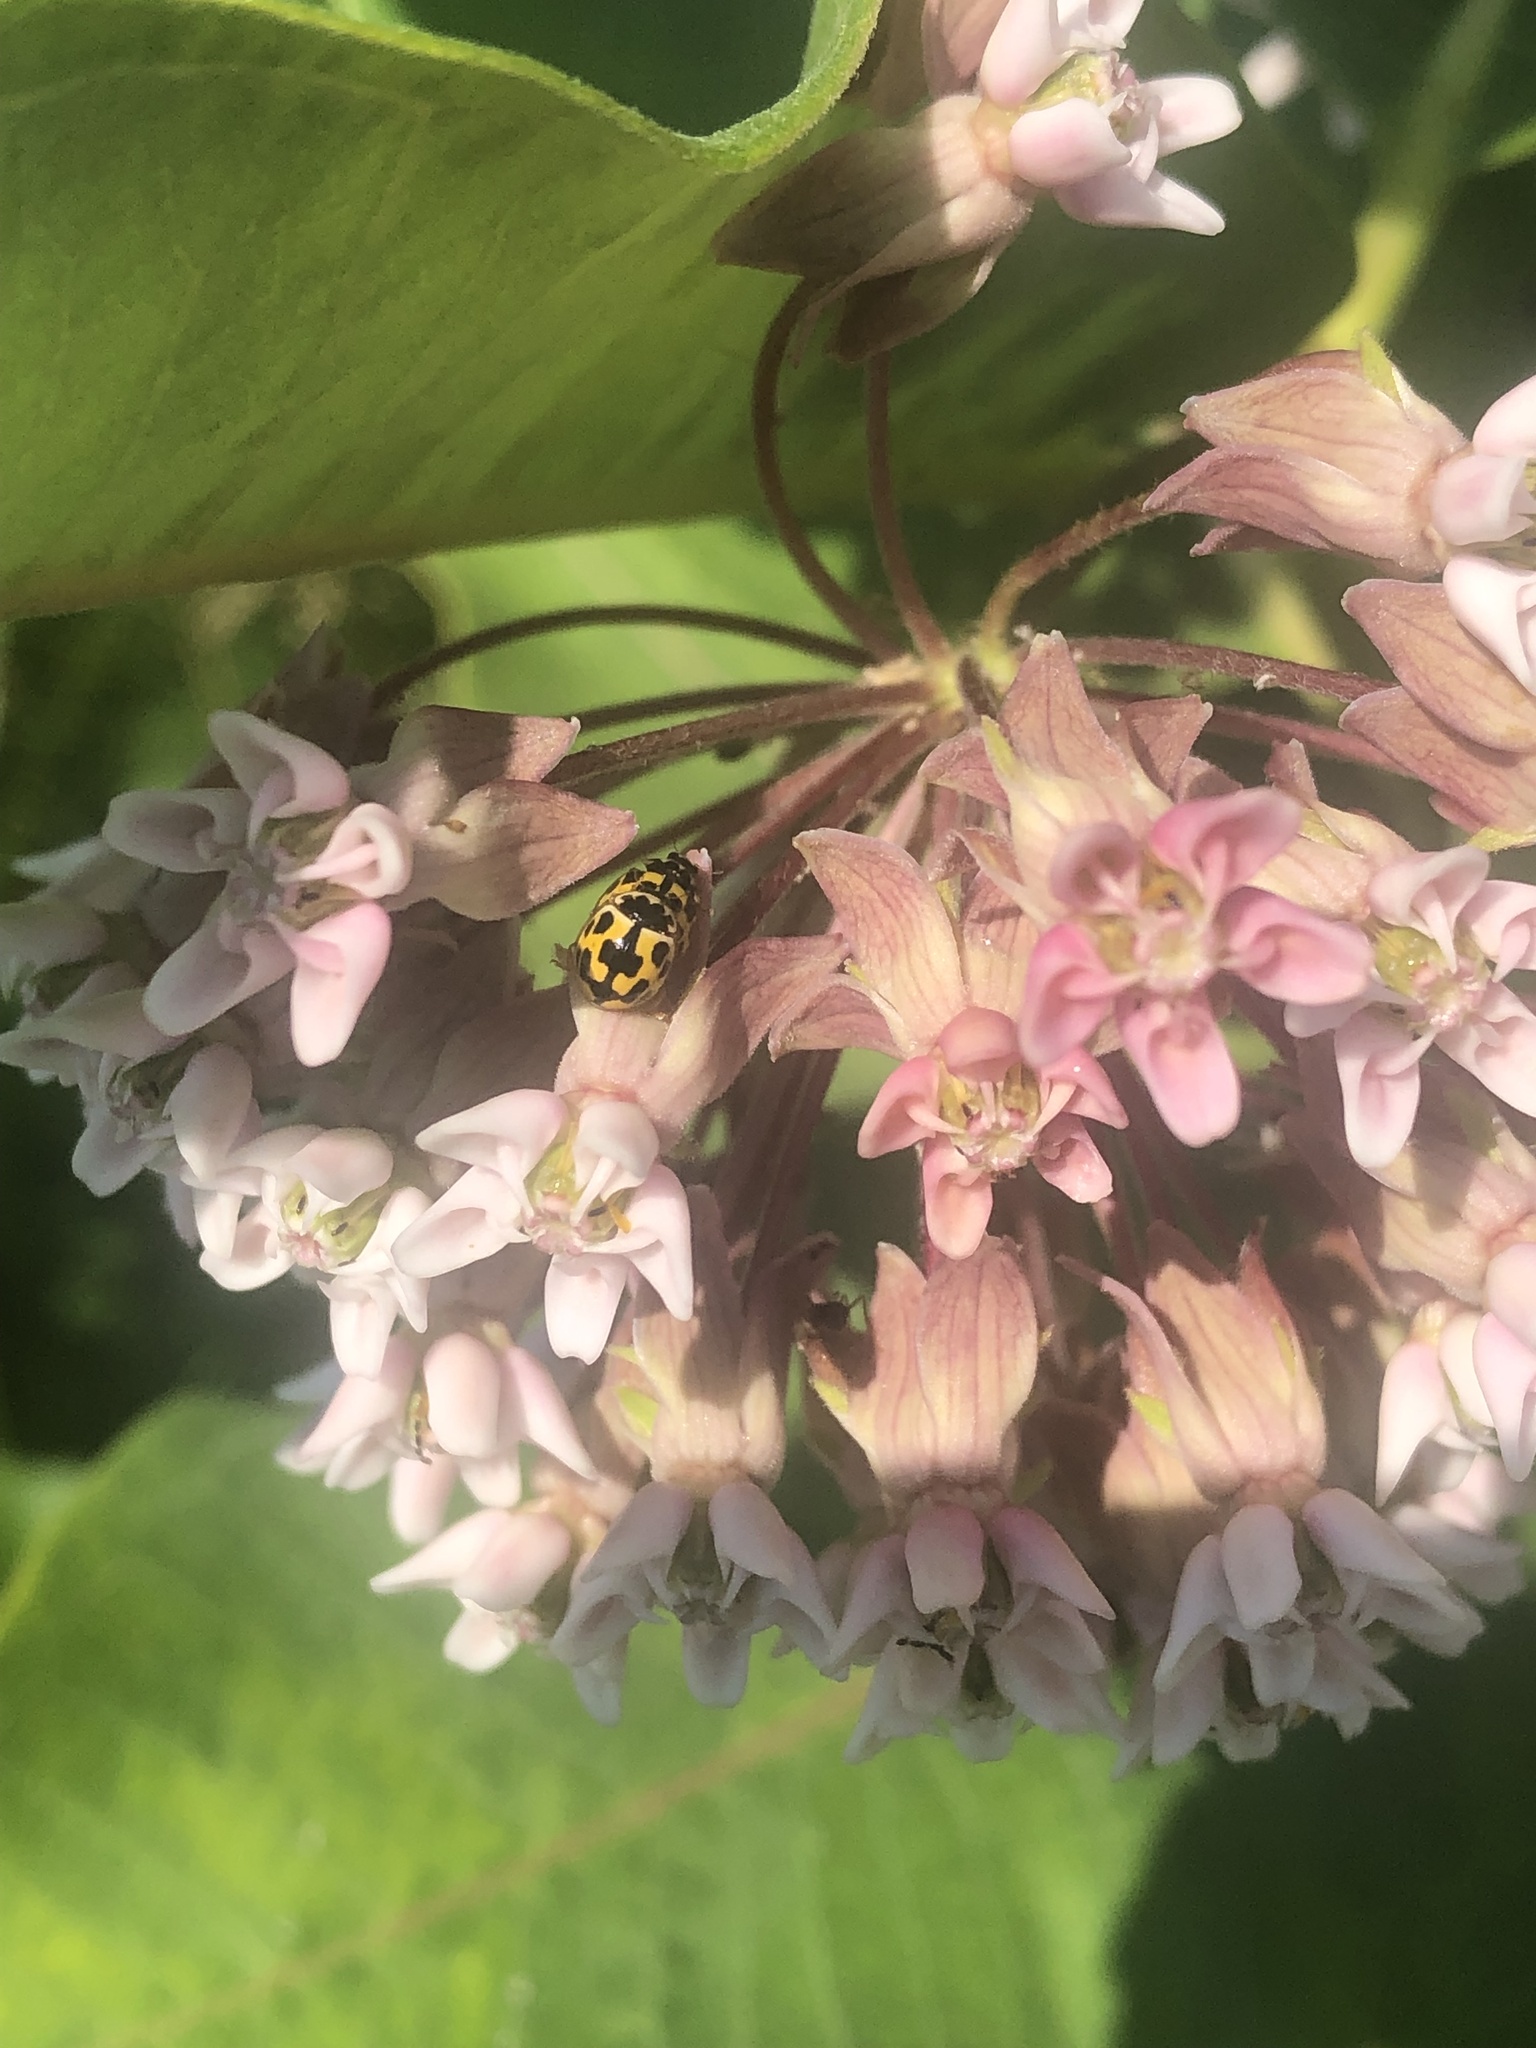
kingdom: Animalia
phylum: Arthropoda
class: Insecta
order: Coleoptera
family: Coccinellidae
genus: Propylaea
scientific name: Propylaea quatuordecimpunctata
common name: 14-spotted ladybird beetle
